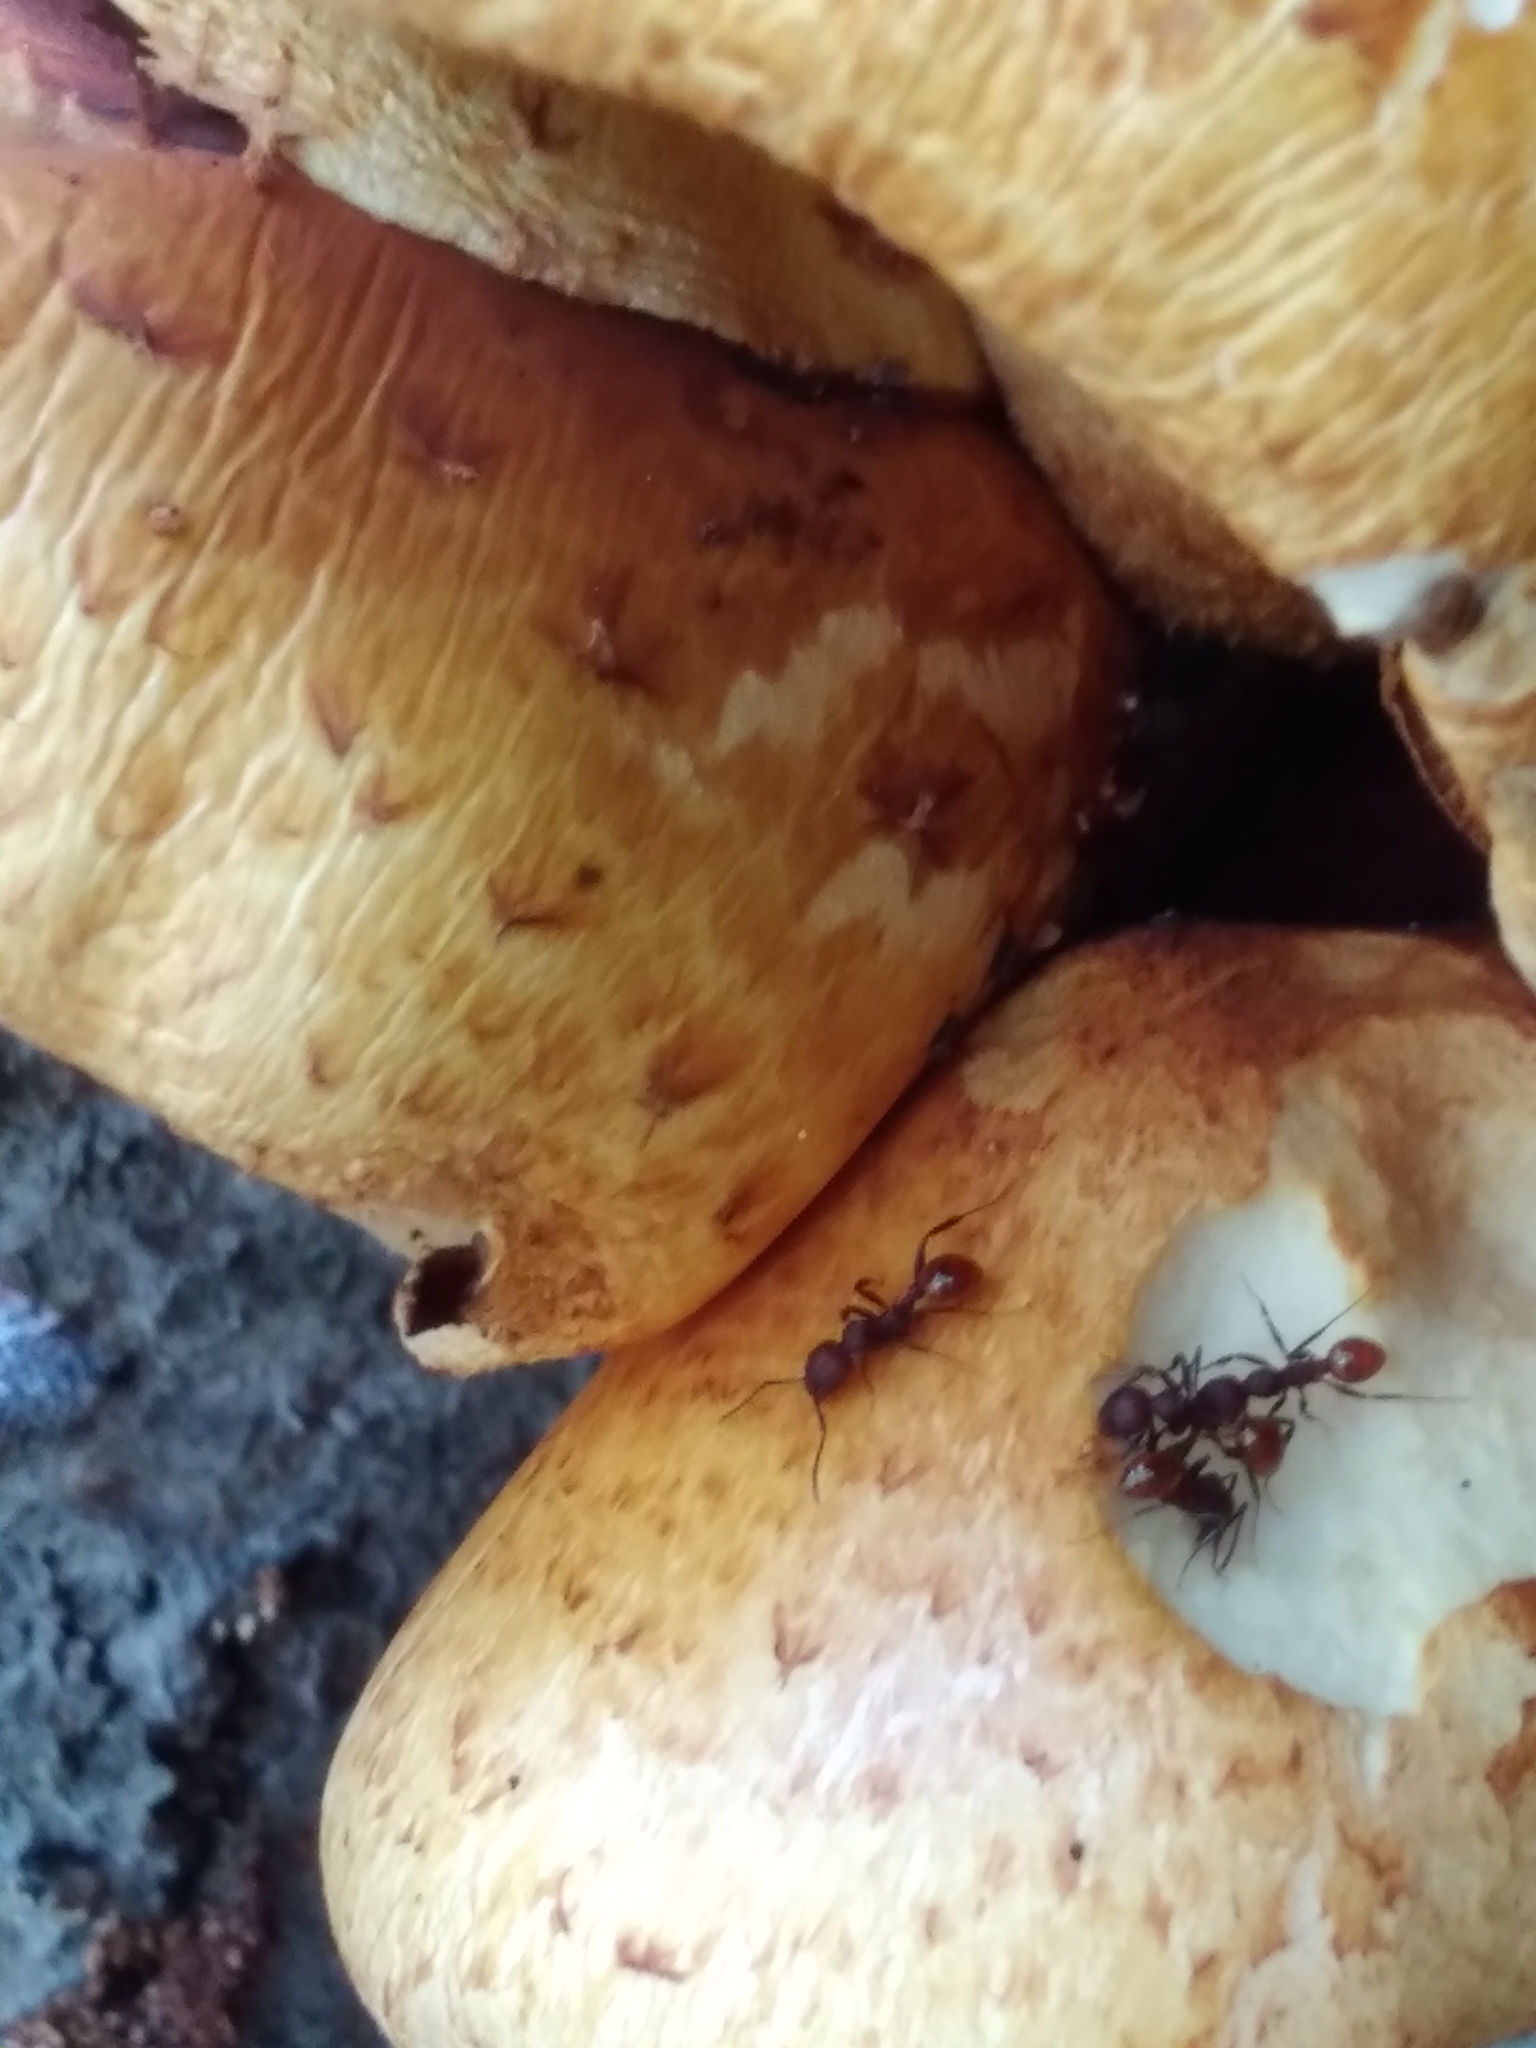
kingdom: Animalia
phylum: Arthropoda
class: Insecta
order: Hymenoptera
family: Formicidae
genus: Aphaenogaster
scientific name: Aphaenogaster tennesseensis
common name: Tennessee thread-waisted ant
